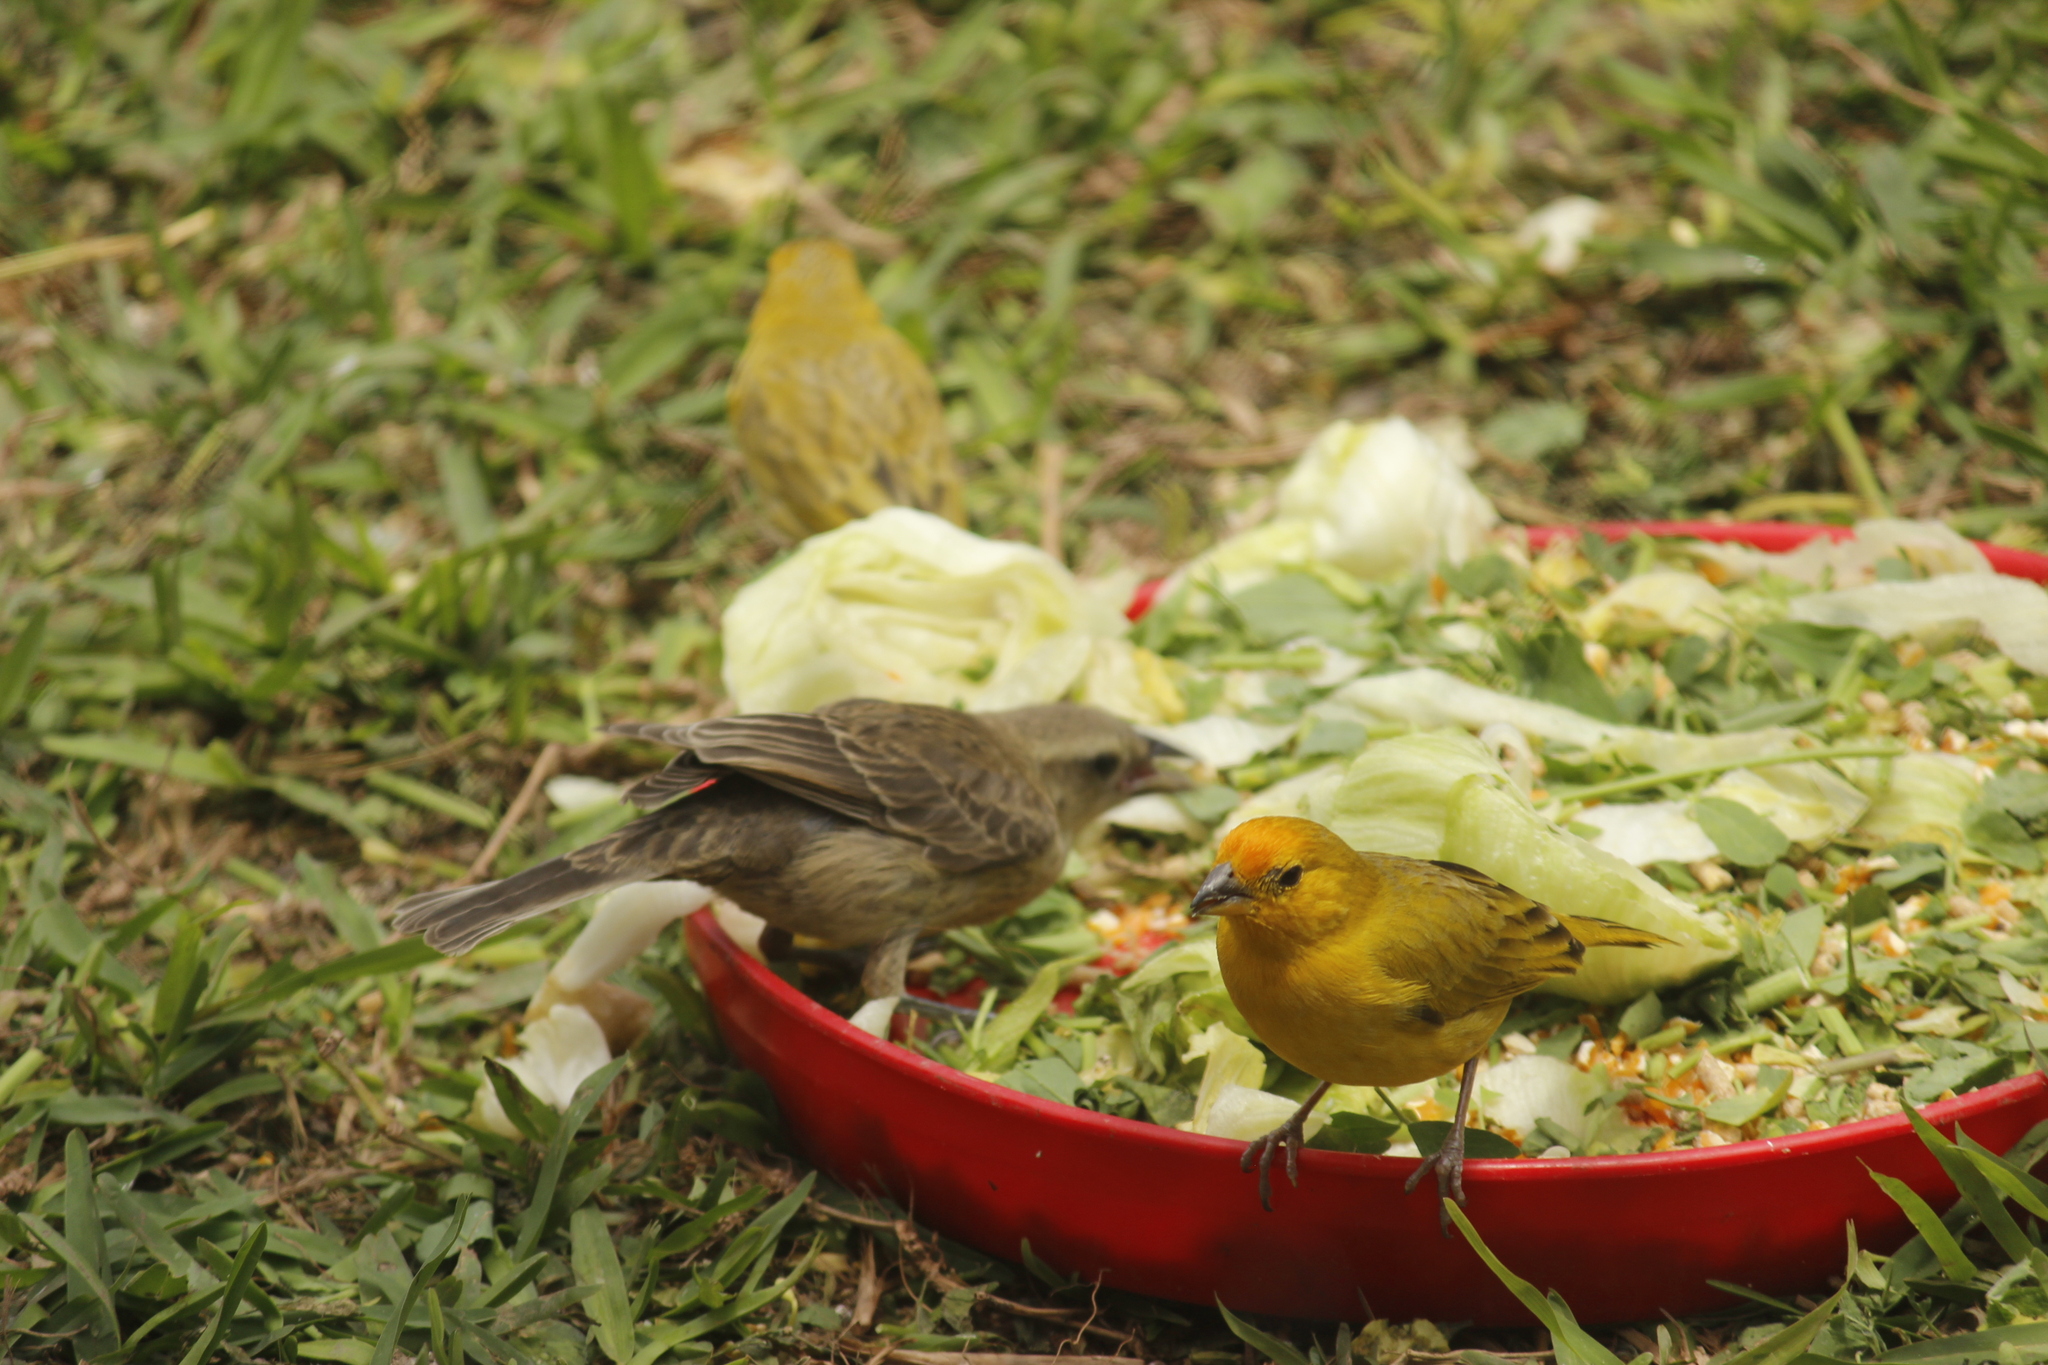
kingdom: Animalia
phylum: Chordata
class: Aves
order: Passeriformes
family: Thraupidae
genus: Sicalis
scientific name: Sicalis flaveola
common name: Saffron finch
